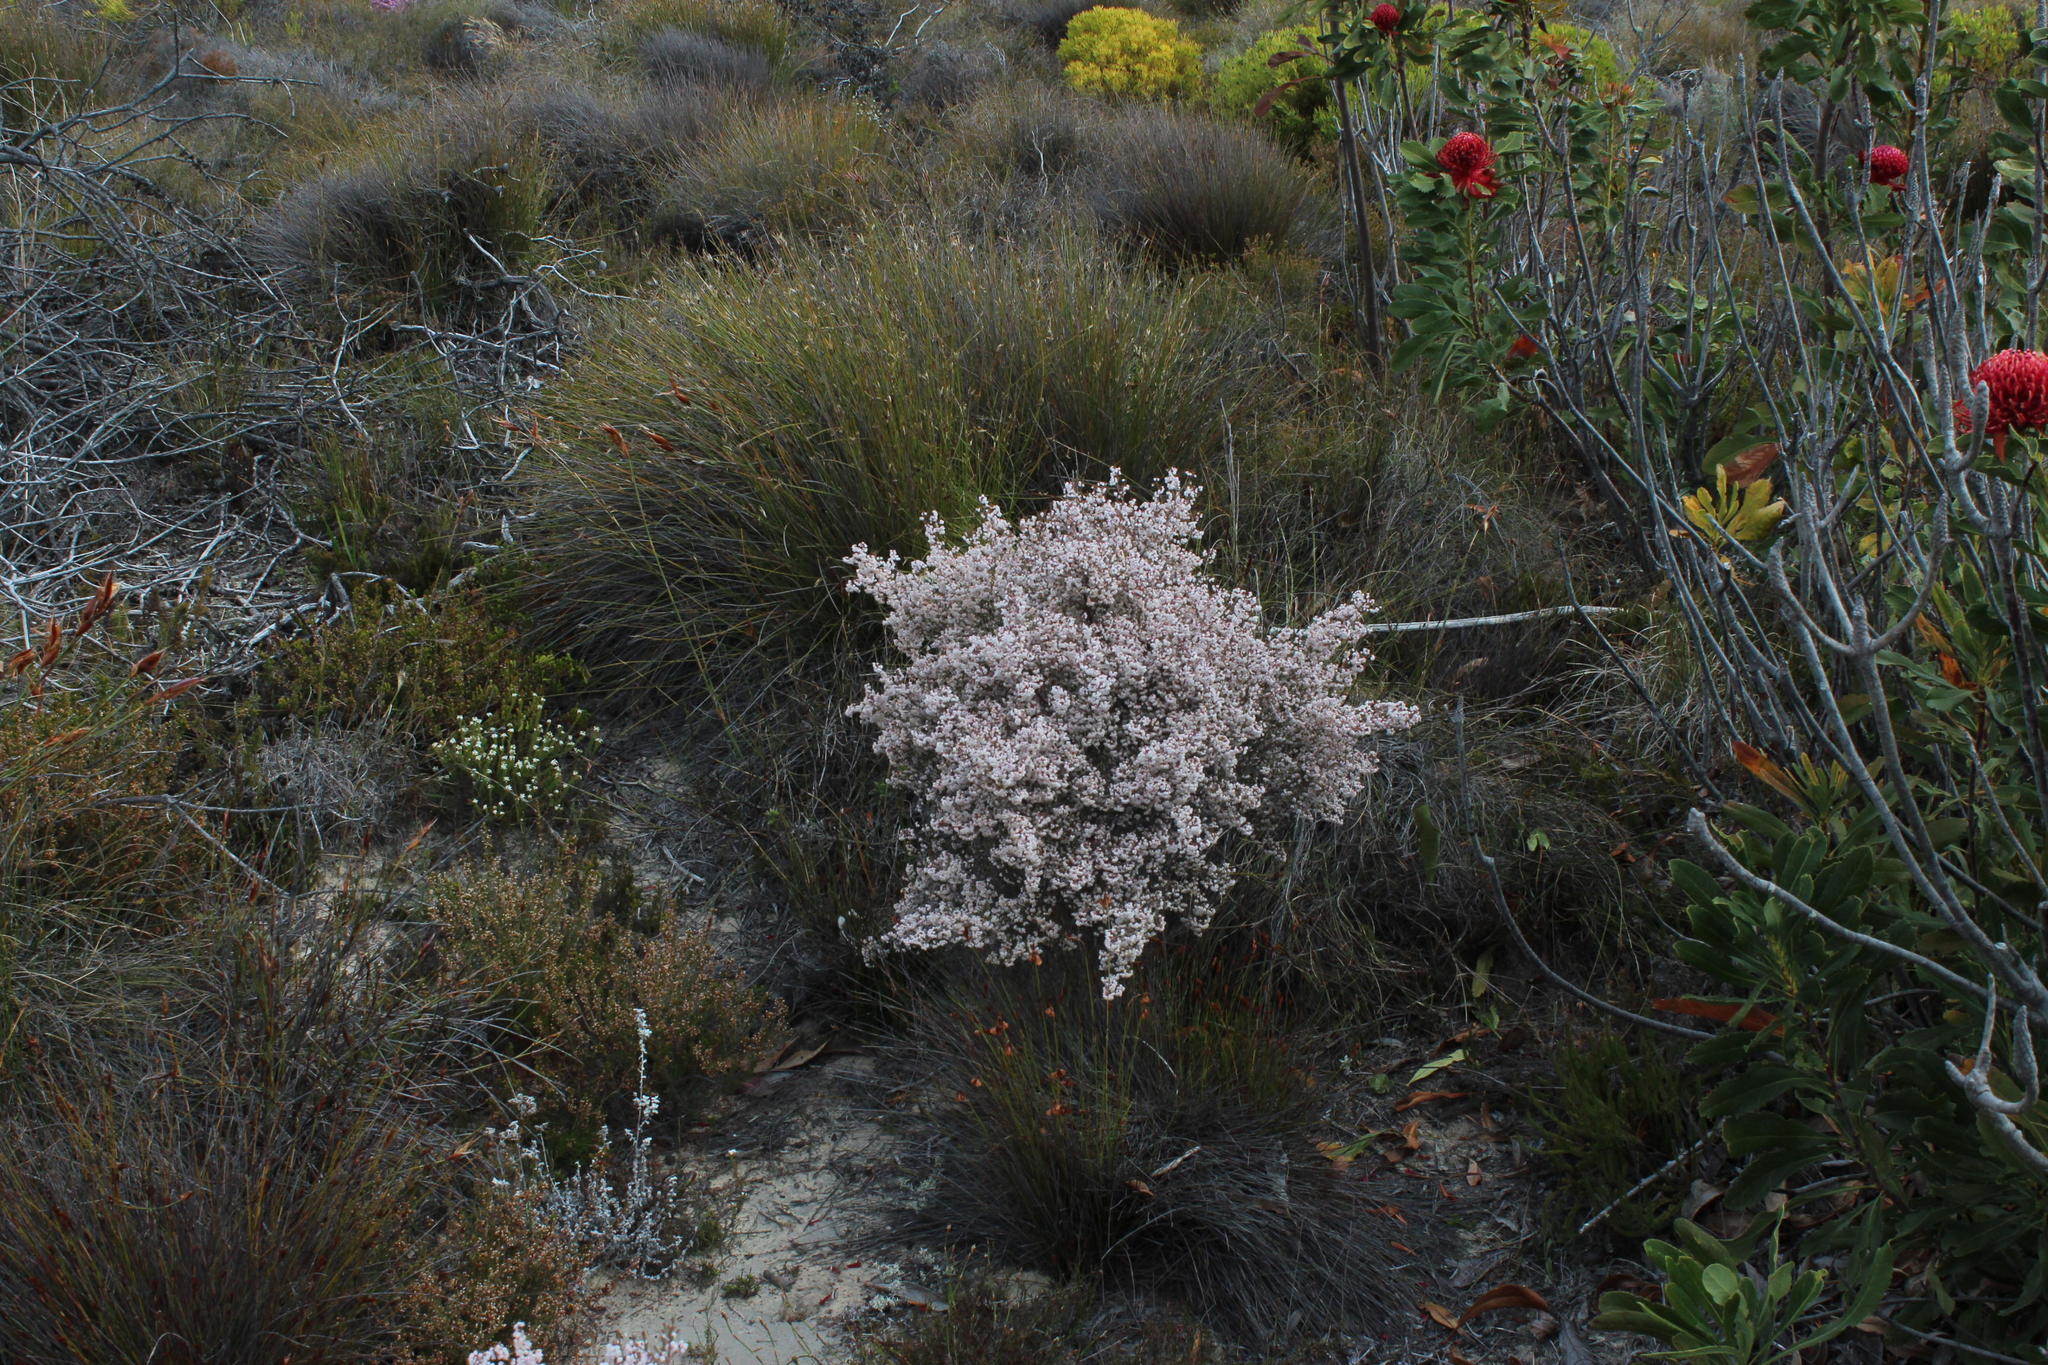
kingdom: Plantae
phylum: Tracheophyta
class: Magnoliopsida
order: Ericales
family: Ericaceae
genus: Erica
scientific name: Erica quadrangularis
